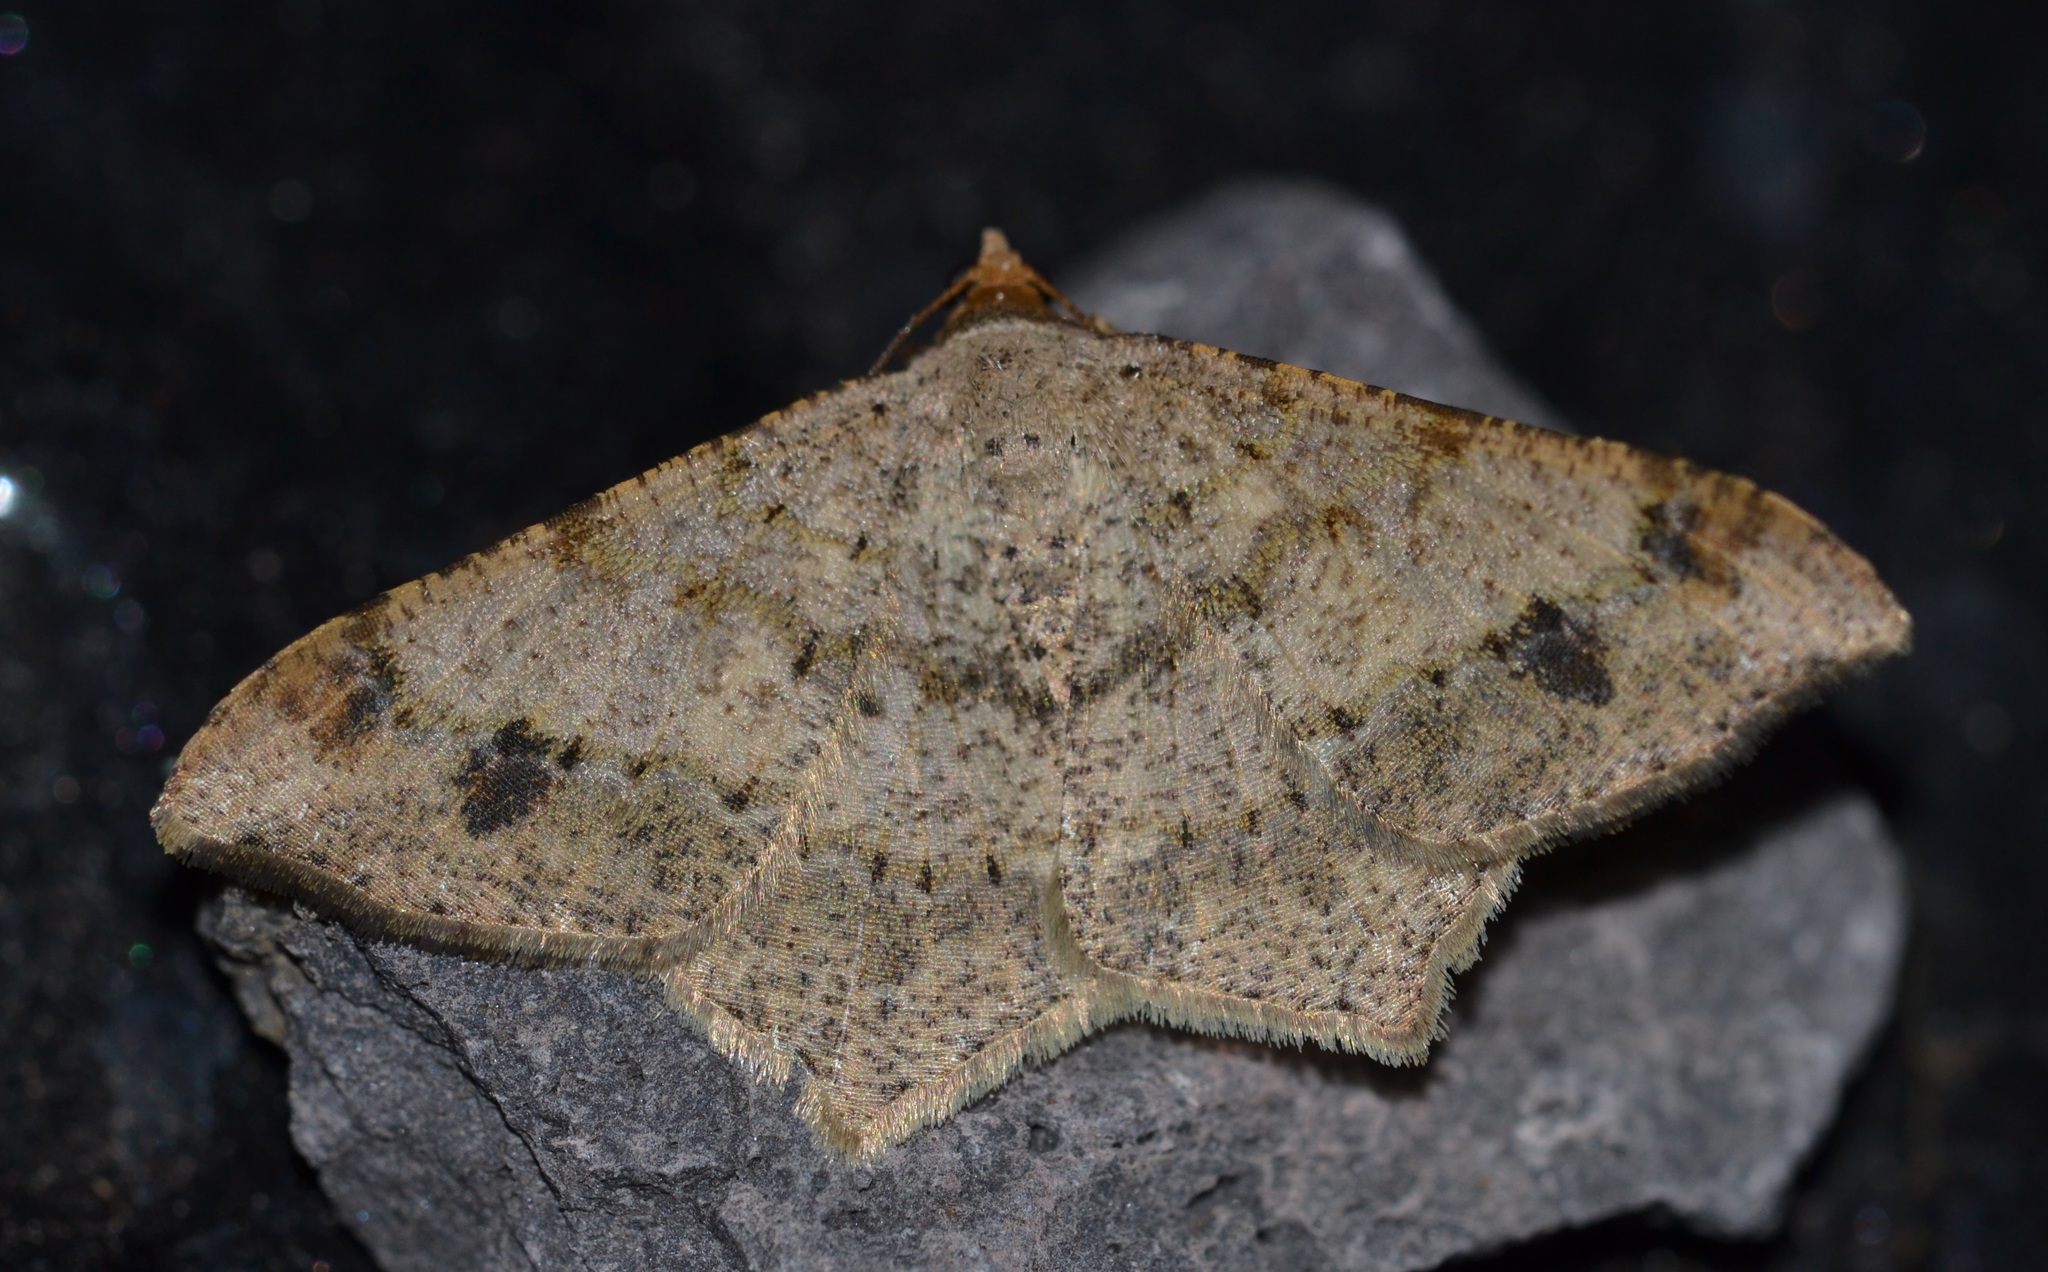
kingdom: Animalia
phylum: Arthropoda
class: Insecta
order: Lepidoptera
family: Geometridae
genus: Macaria
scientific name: Macaria abydata
